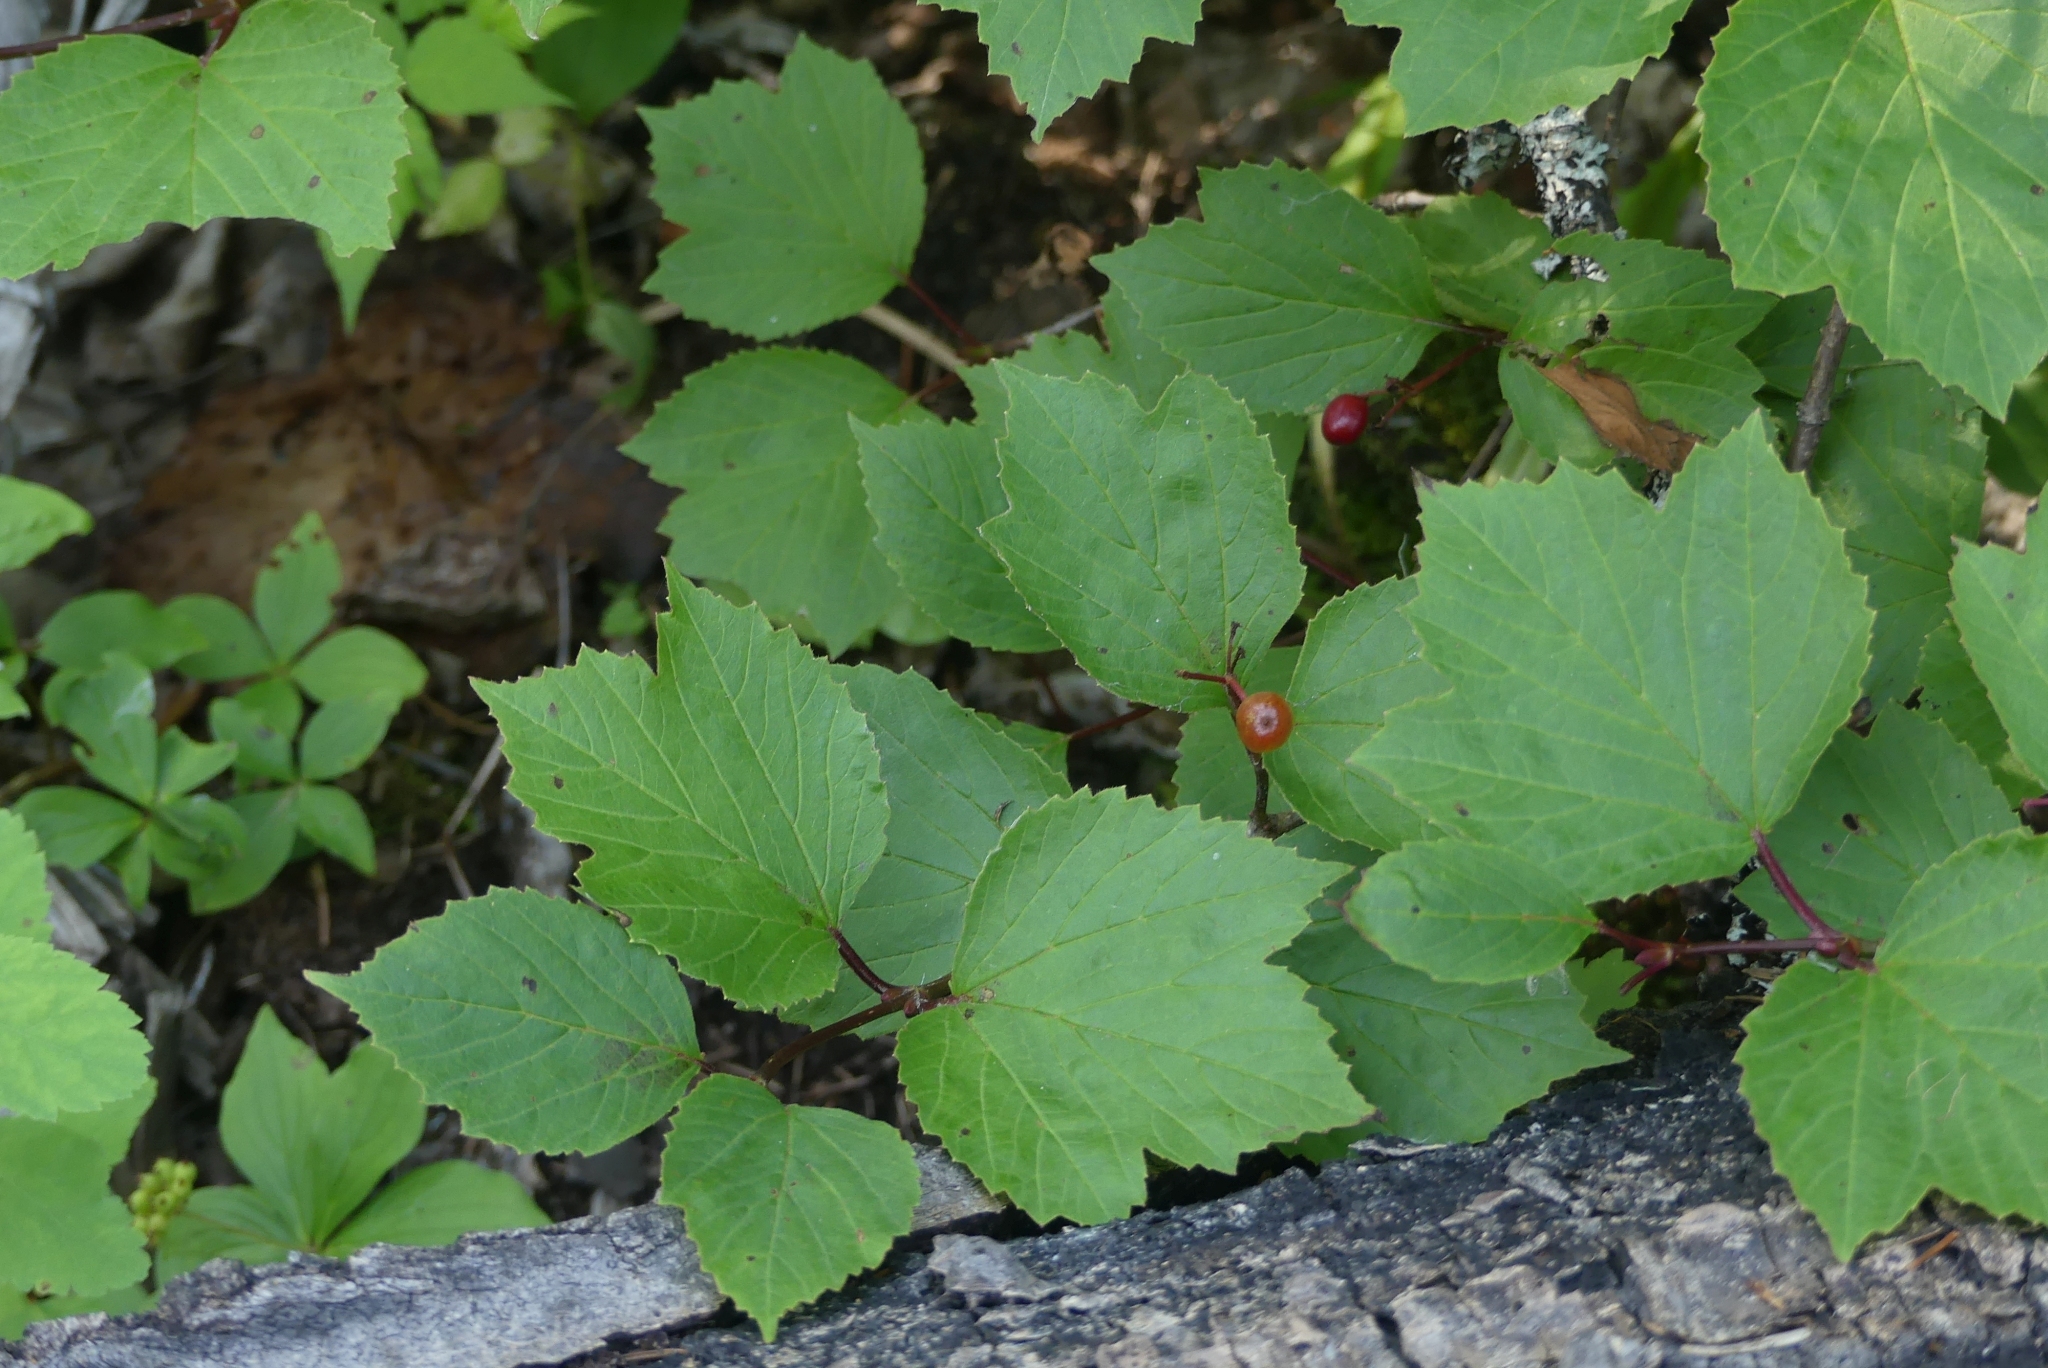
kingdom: Plantae
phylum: Tracheophyta
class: Magnoliopsida
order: Dipsacales
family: Viburnaceae
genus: Viburnum
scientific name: Viburnum edule
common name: Mooseberry
